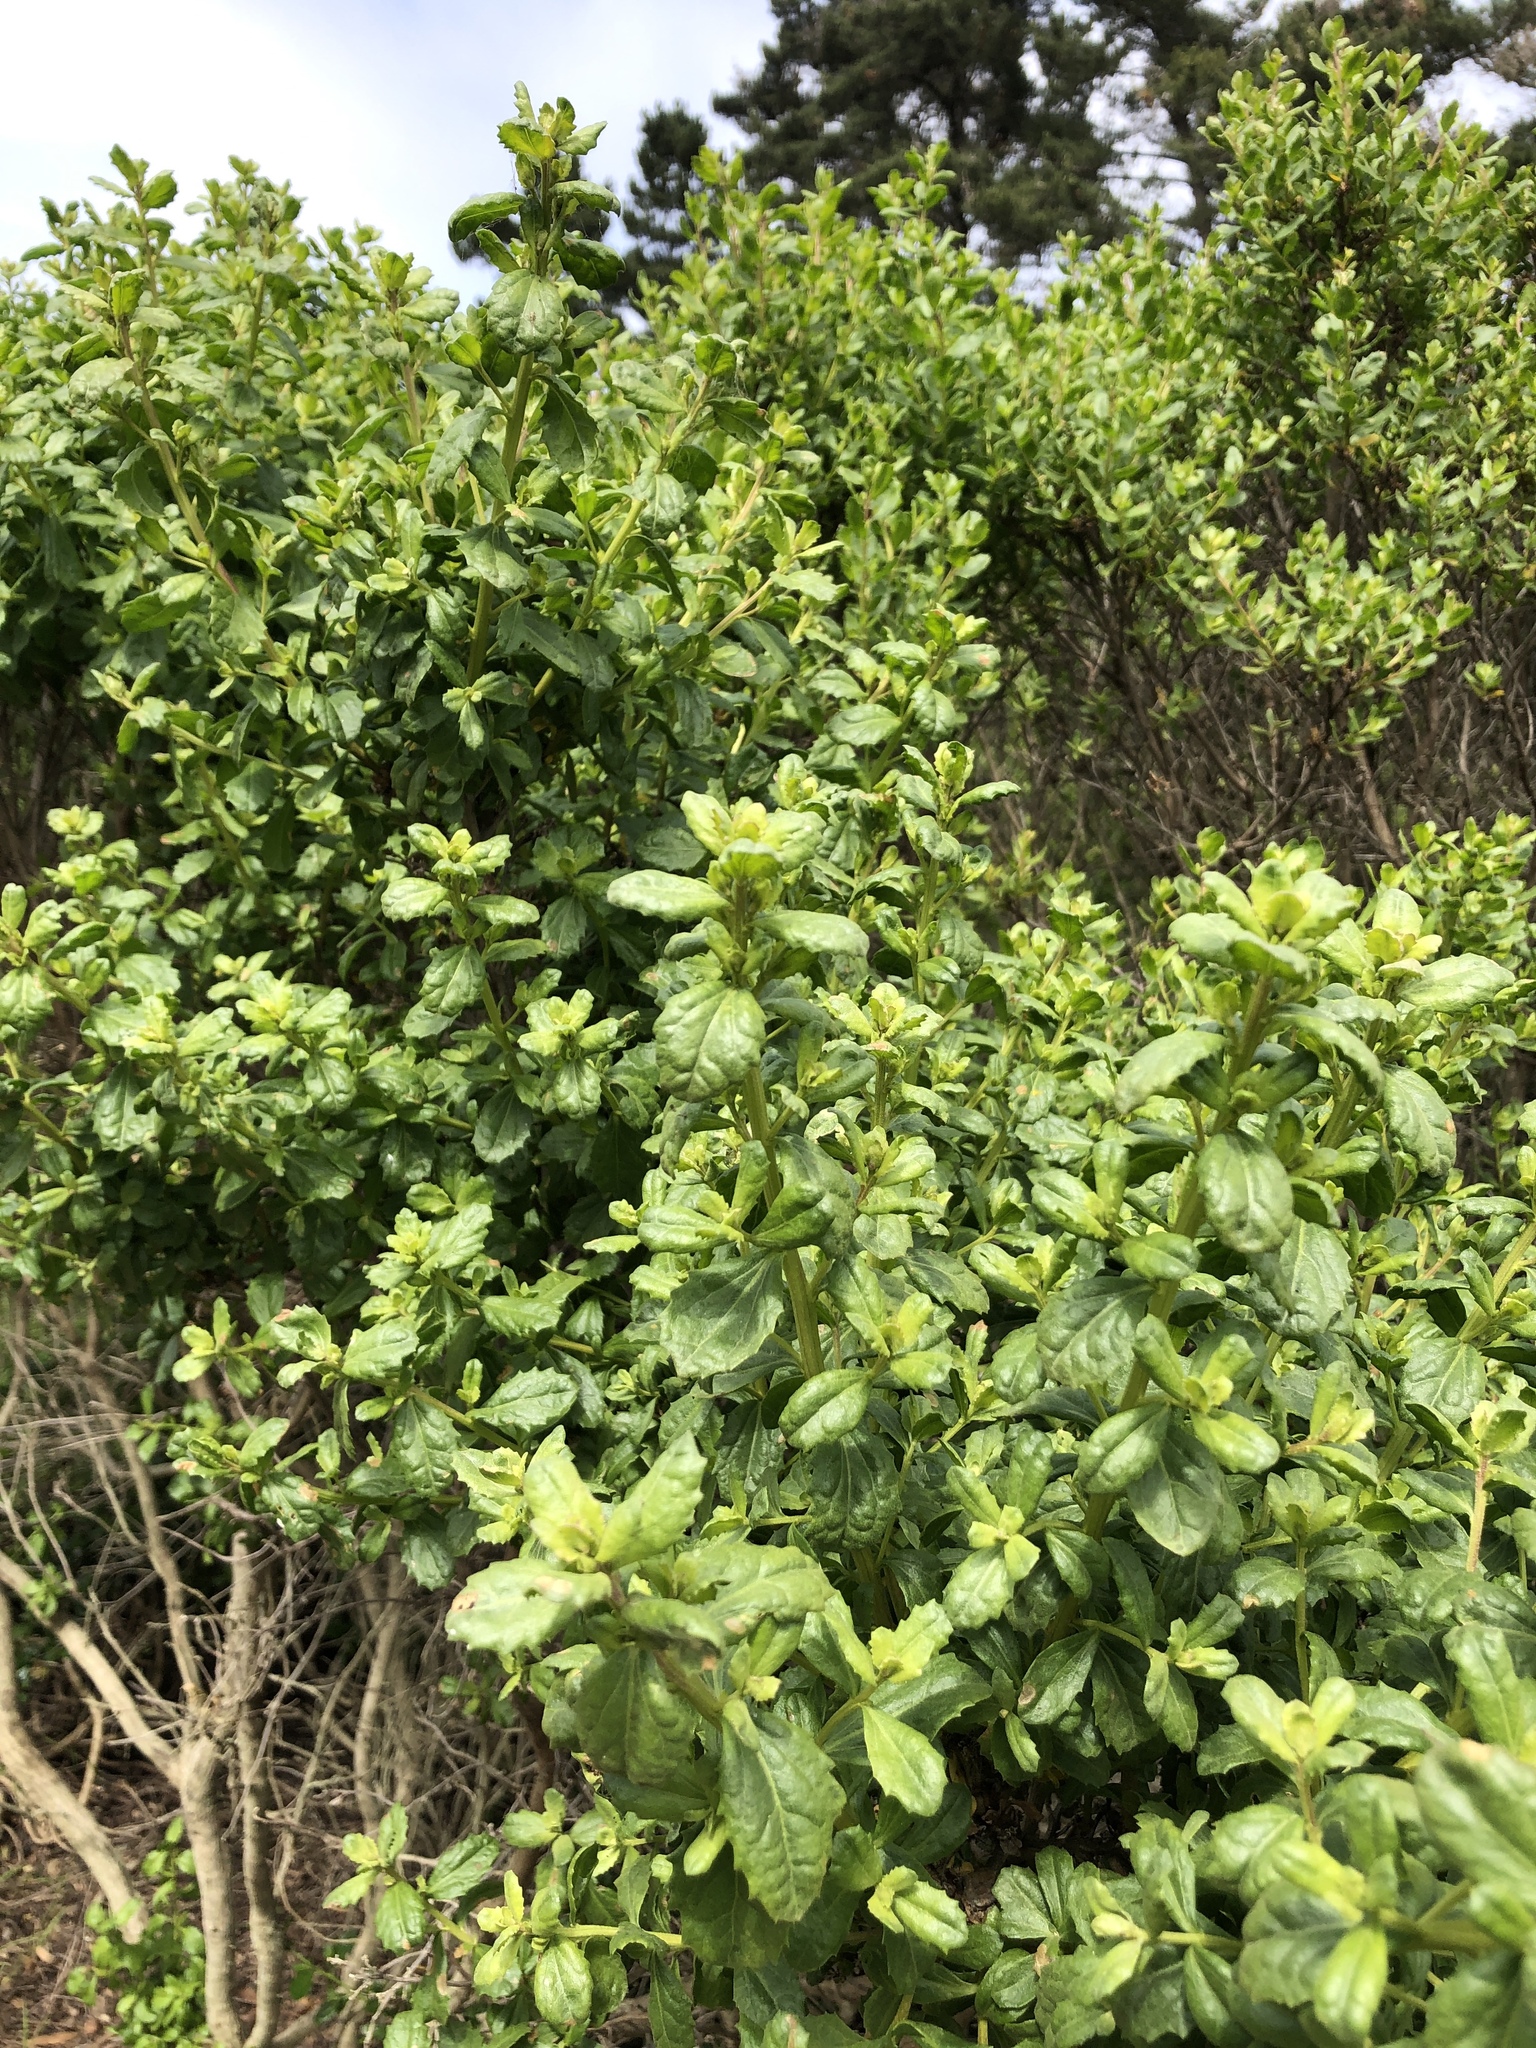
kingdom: Plantae
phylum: Tracheophyta
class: Magnoliopsida
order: Asterales
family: Asteraceae
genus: Baccharis
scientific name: Baccharis pilularis
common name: Coyotebrush
